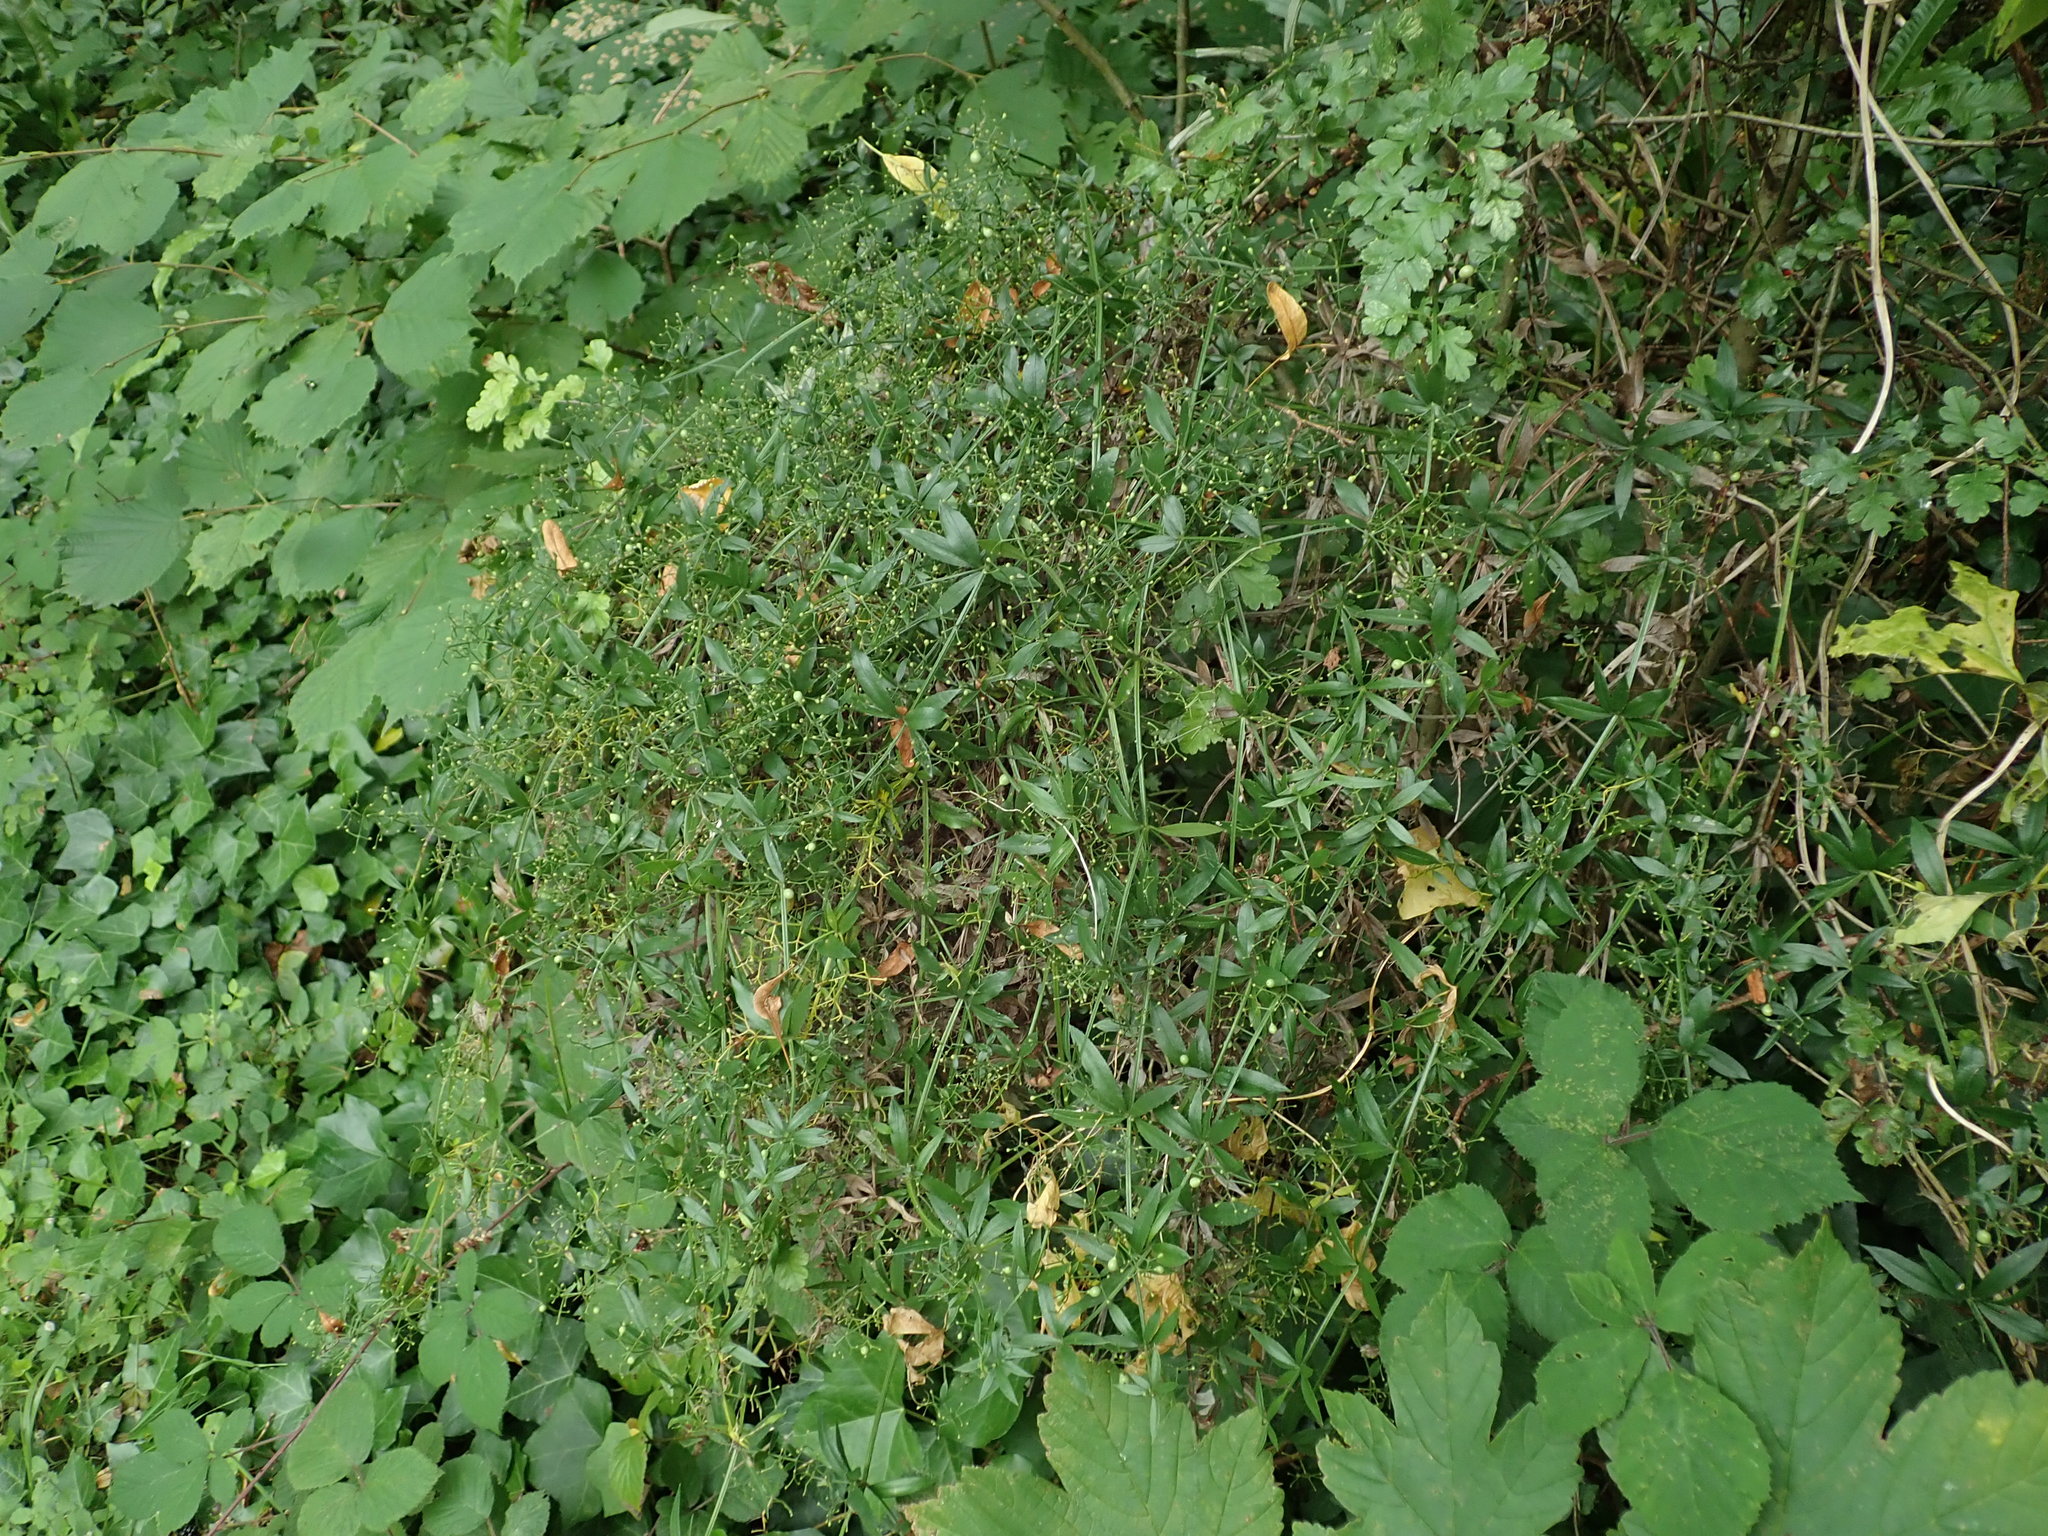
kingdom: Plantae
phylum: Tracheophyta
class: Magnoliopsida
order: Gentianales
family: Rubiaceae
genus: Rubia
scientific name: Rubia peregrina
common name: Wild madder
